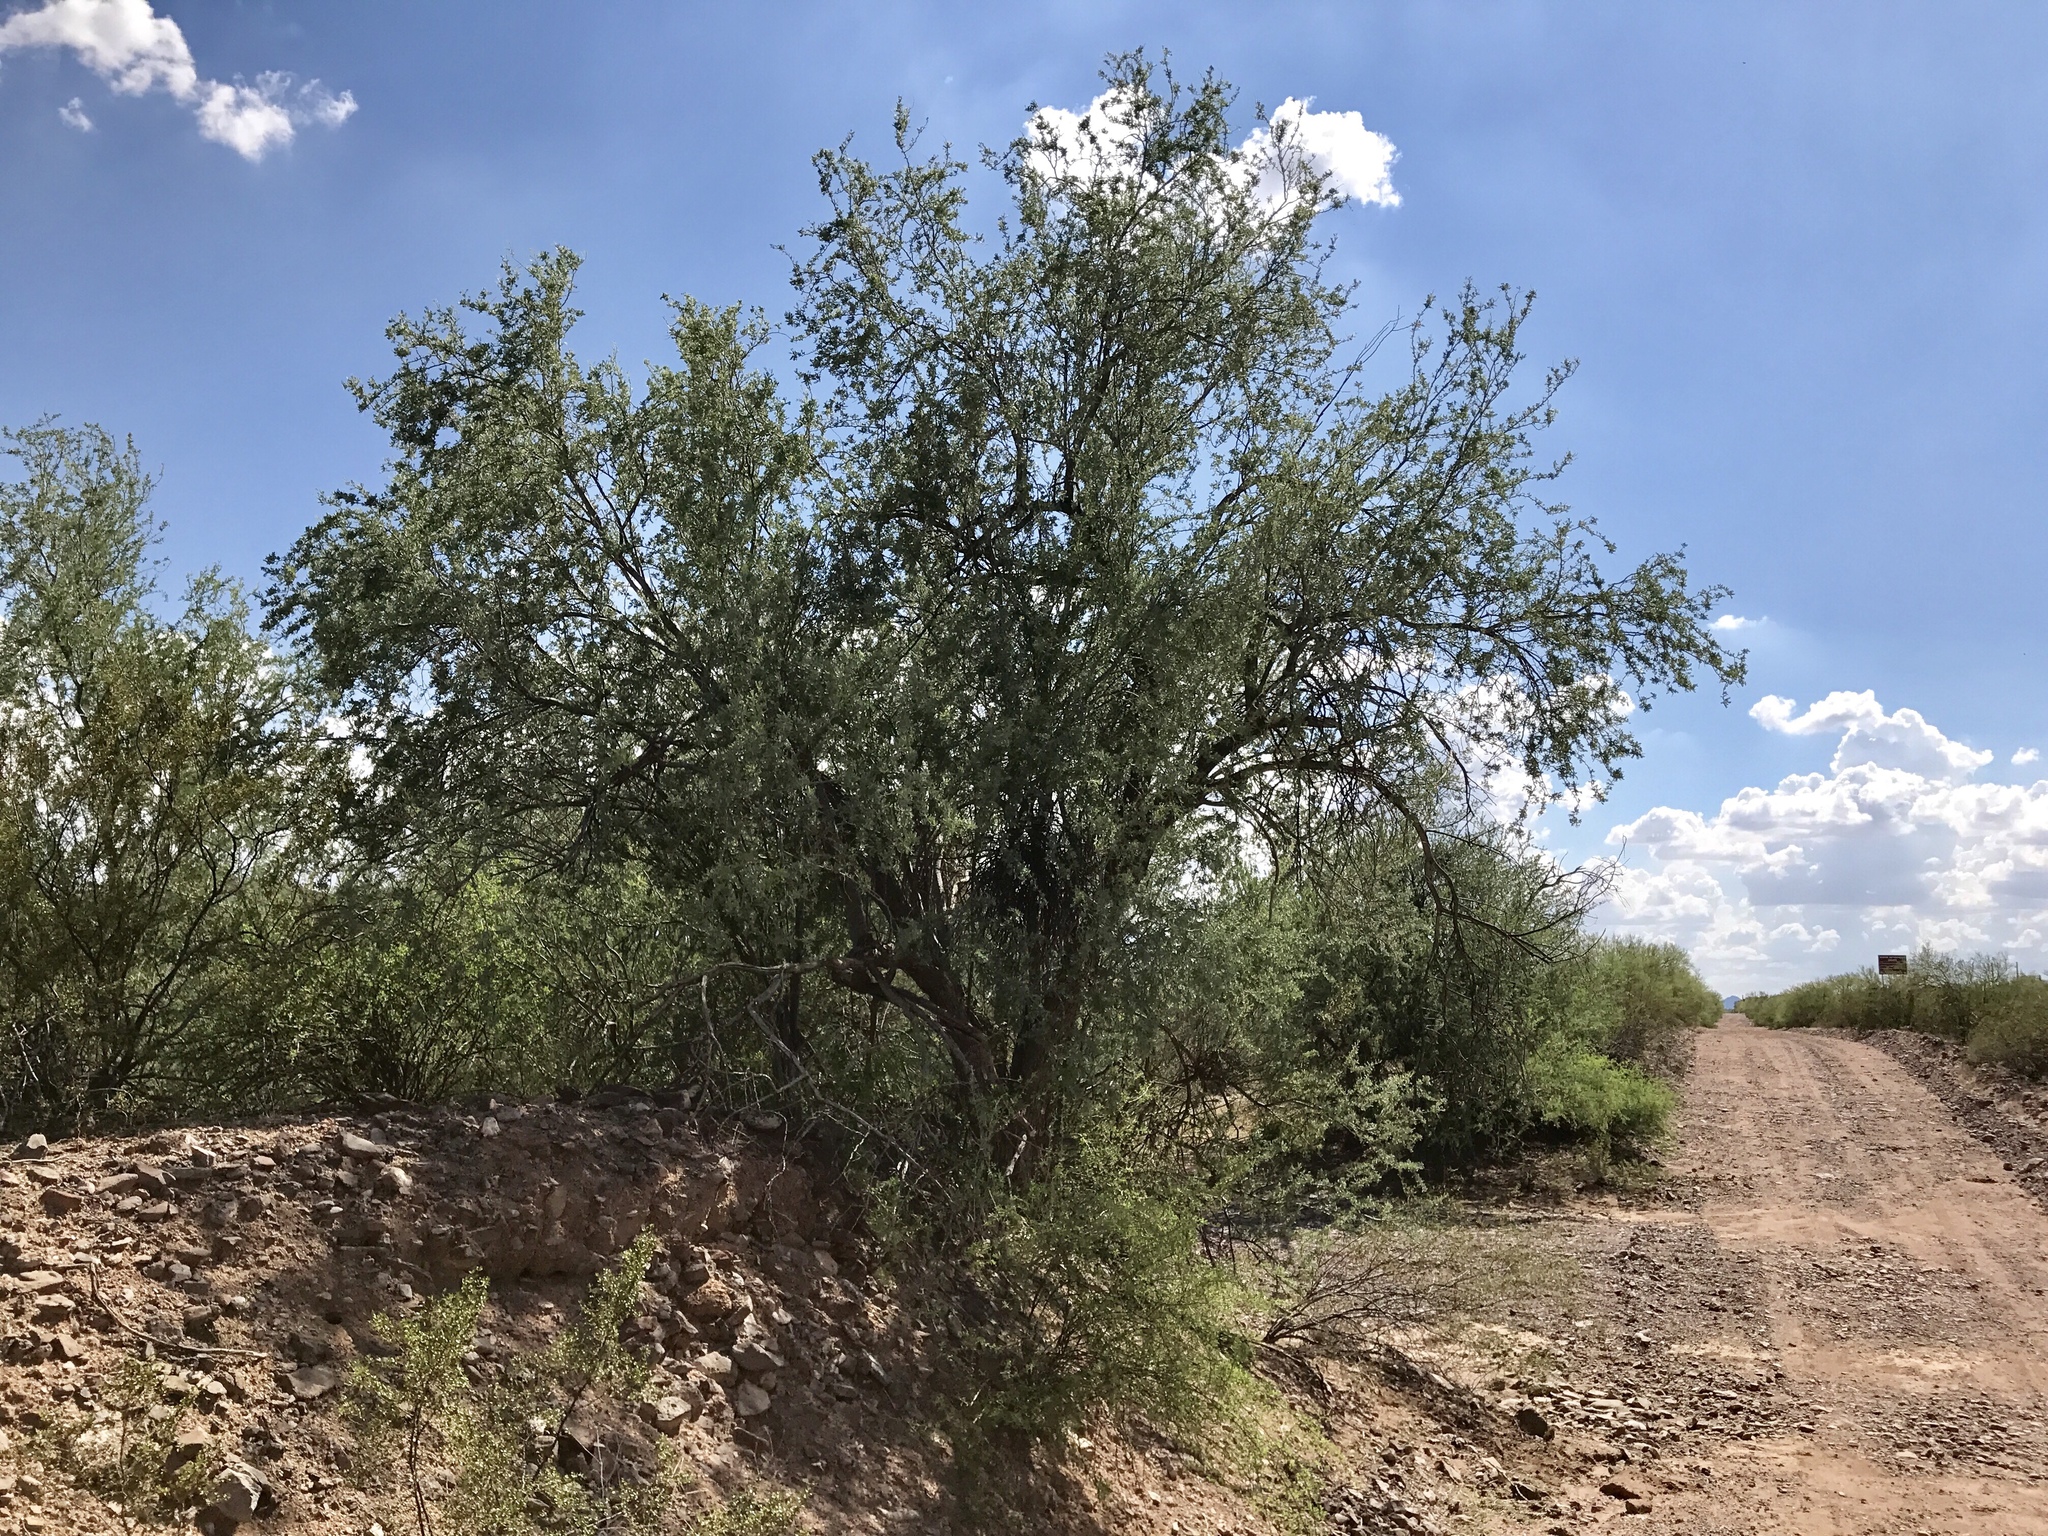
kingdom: Plantae
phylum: Tracheophyta
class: Magnoliopsida
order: Fabales
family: Fabaceae
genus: Olneya
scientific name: Olneya tesota
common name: Desert ironwood
